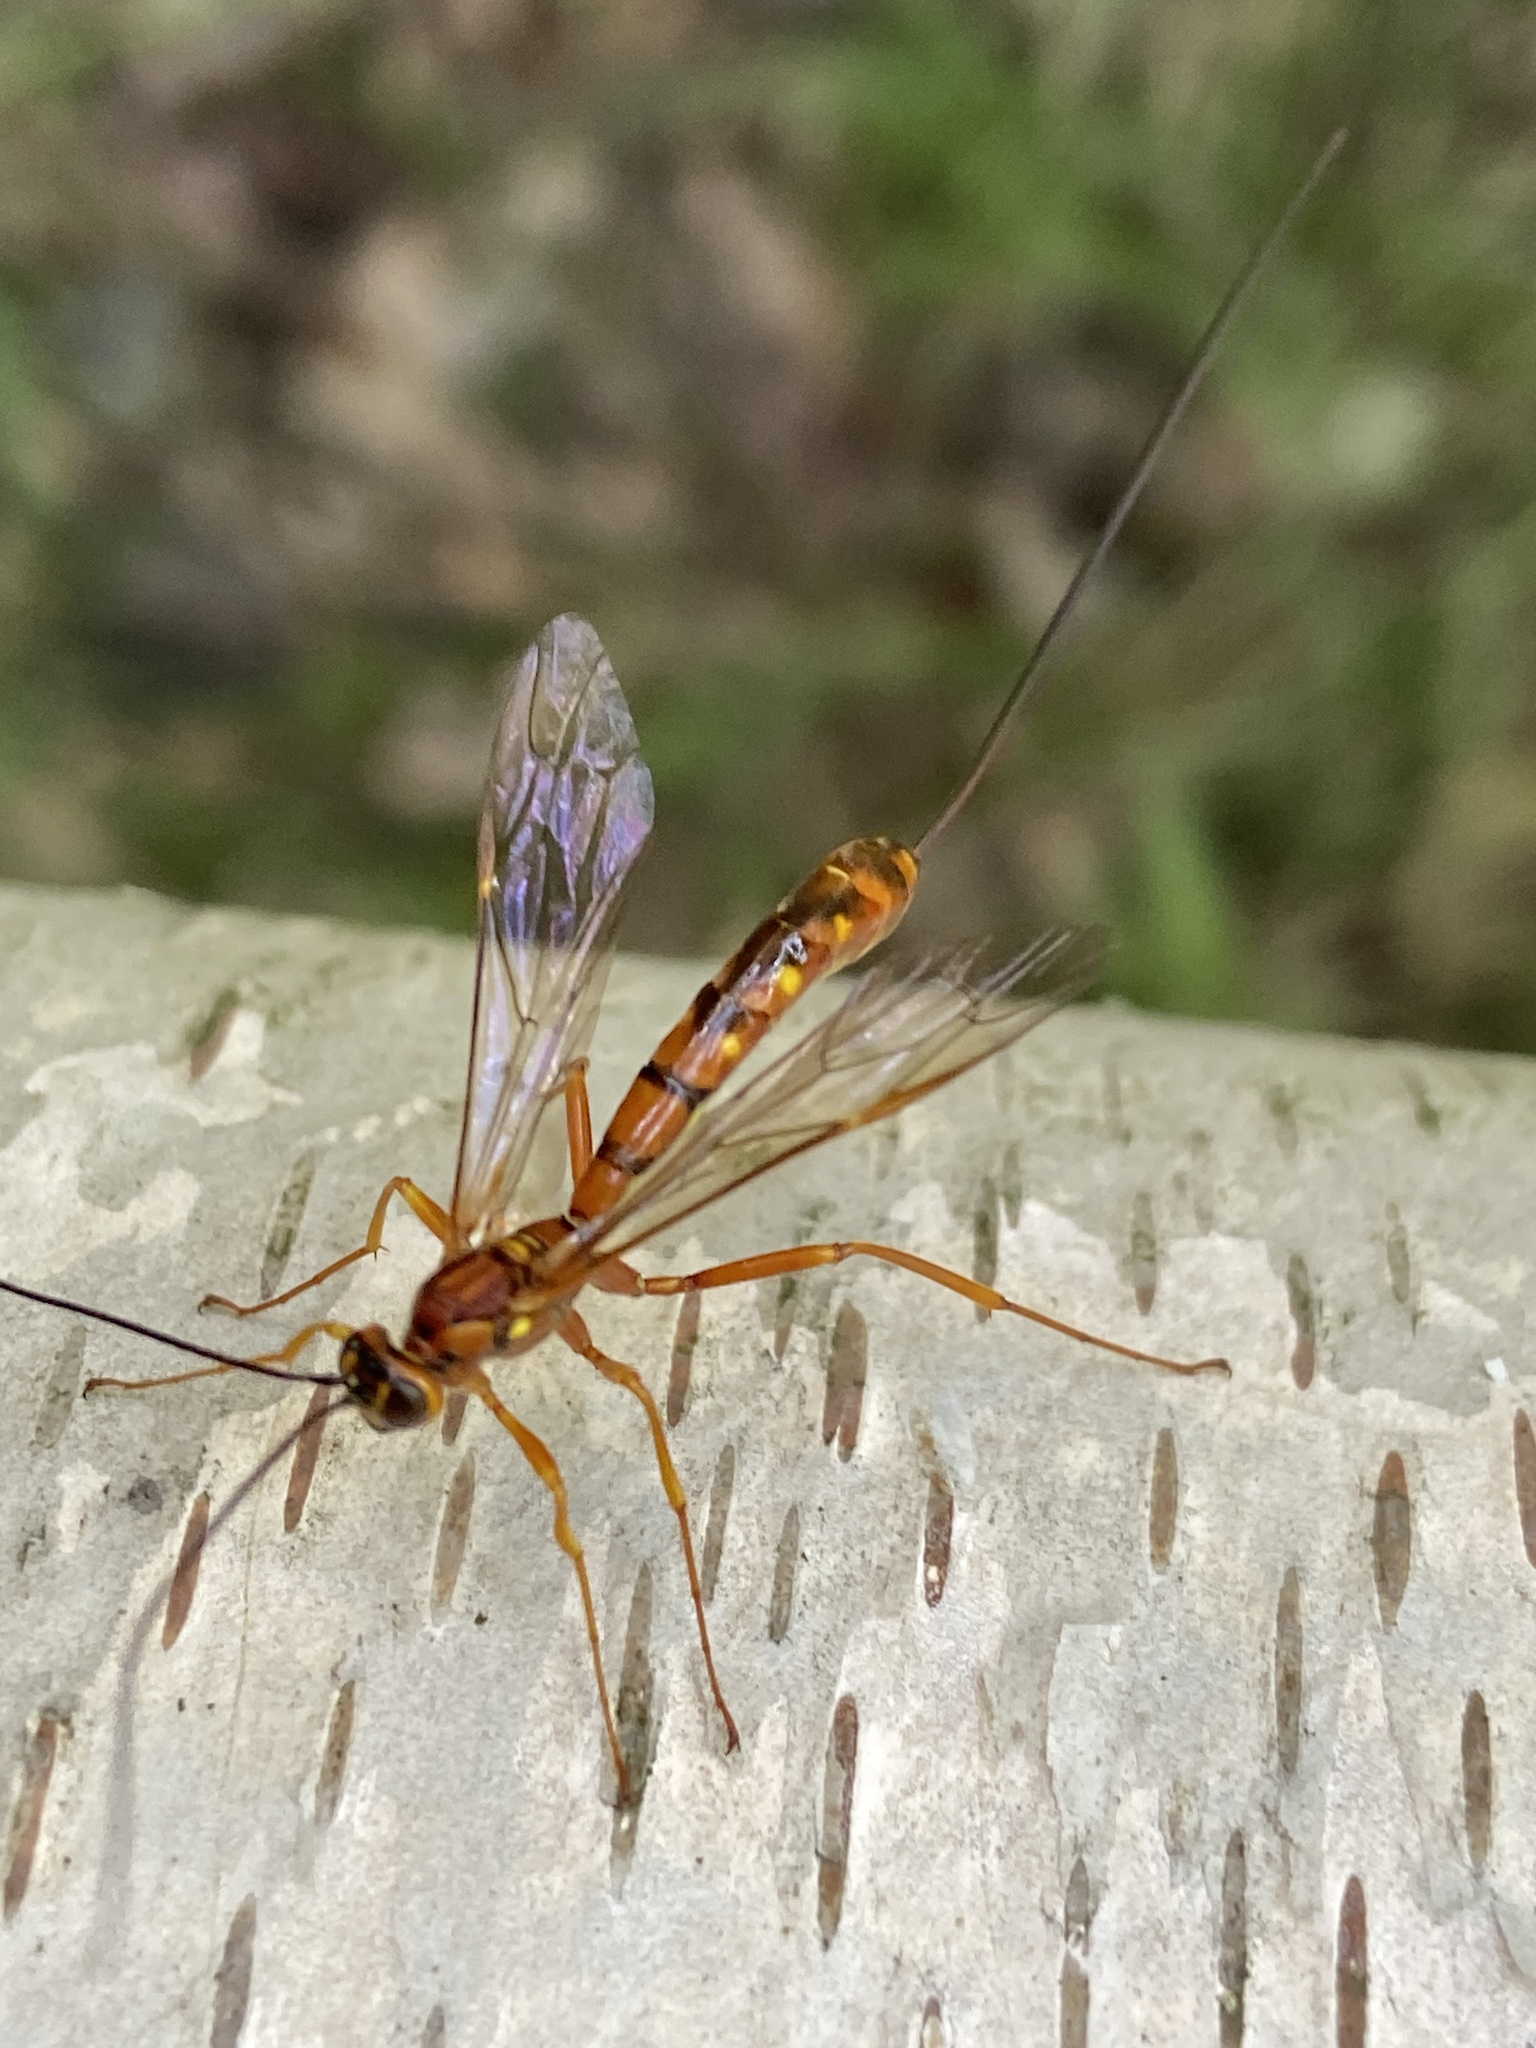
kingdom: Animalia
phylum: Arthropoda
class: Insecta
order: Hymenoptera
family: Ichneumonidae
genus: Megarhyssa
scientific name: Megarhyssa vagatoria
